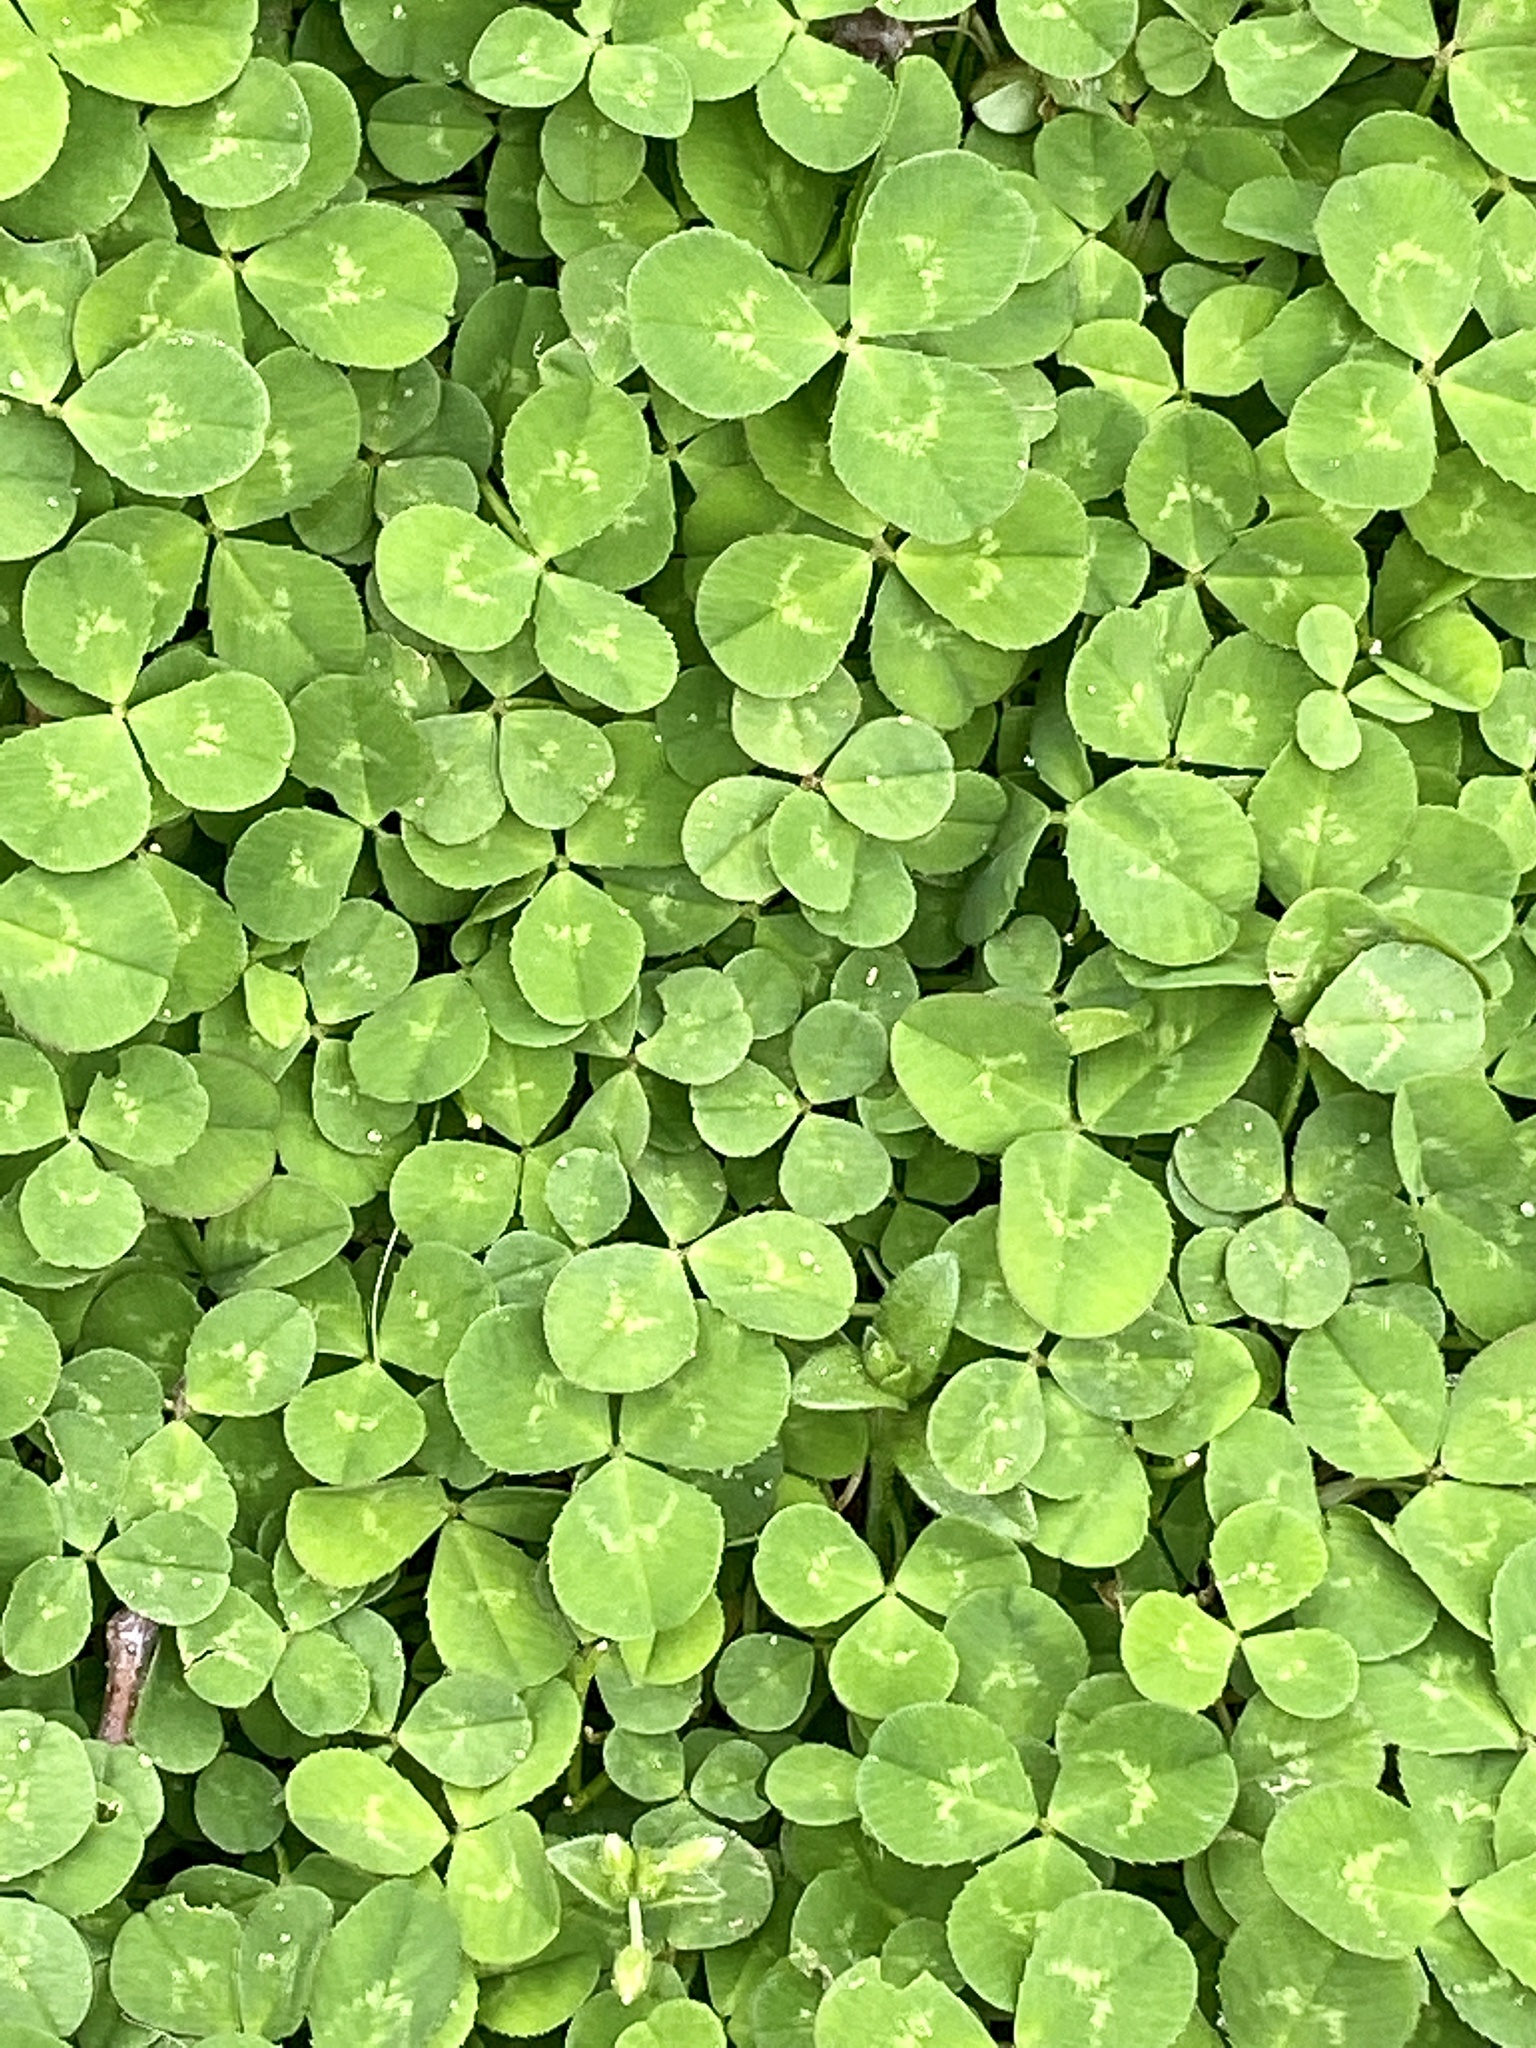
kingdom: Plantae
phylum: Tracheophyta
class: Magnoliopsida
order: Fabales
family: Fabaceae
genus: Trifolium
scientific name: Trifolium repens
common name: White clover
